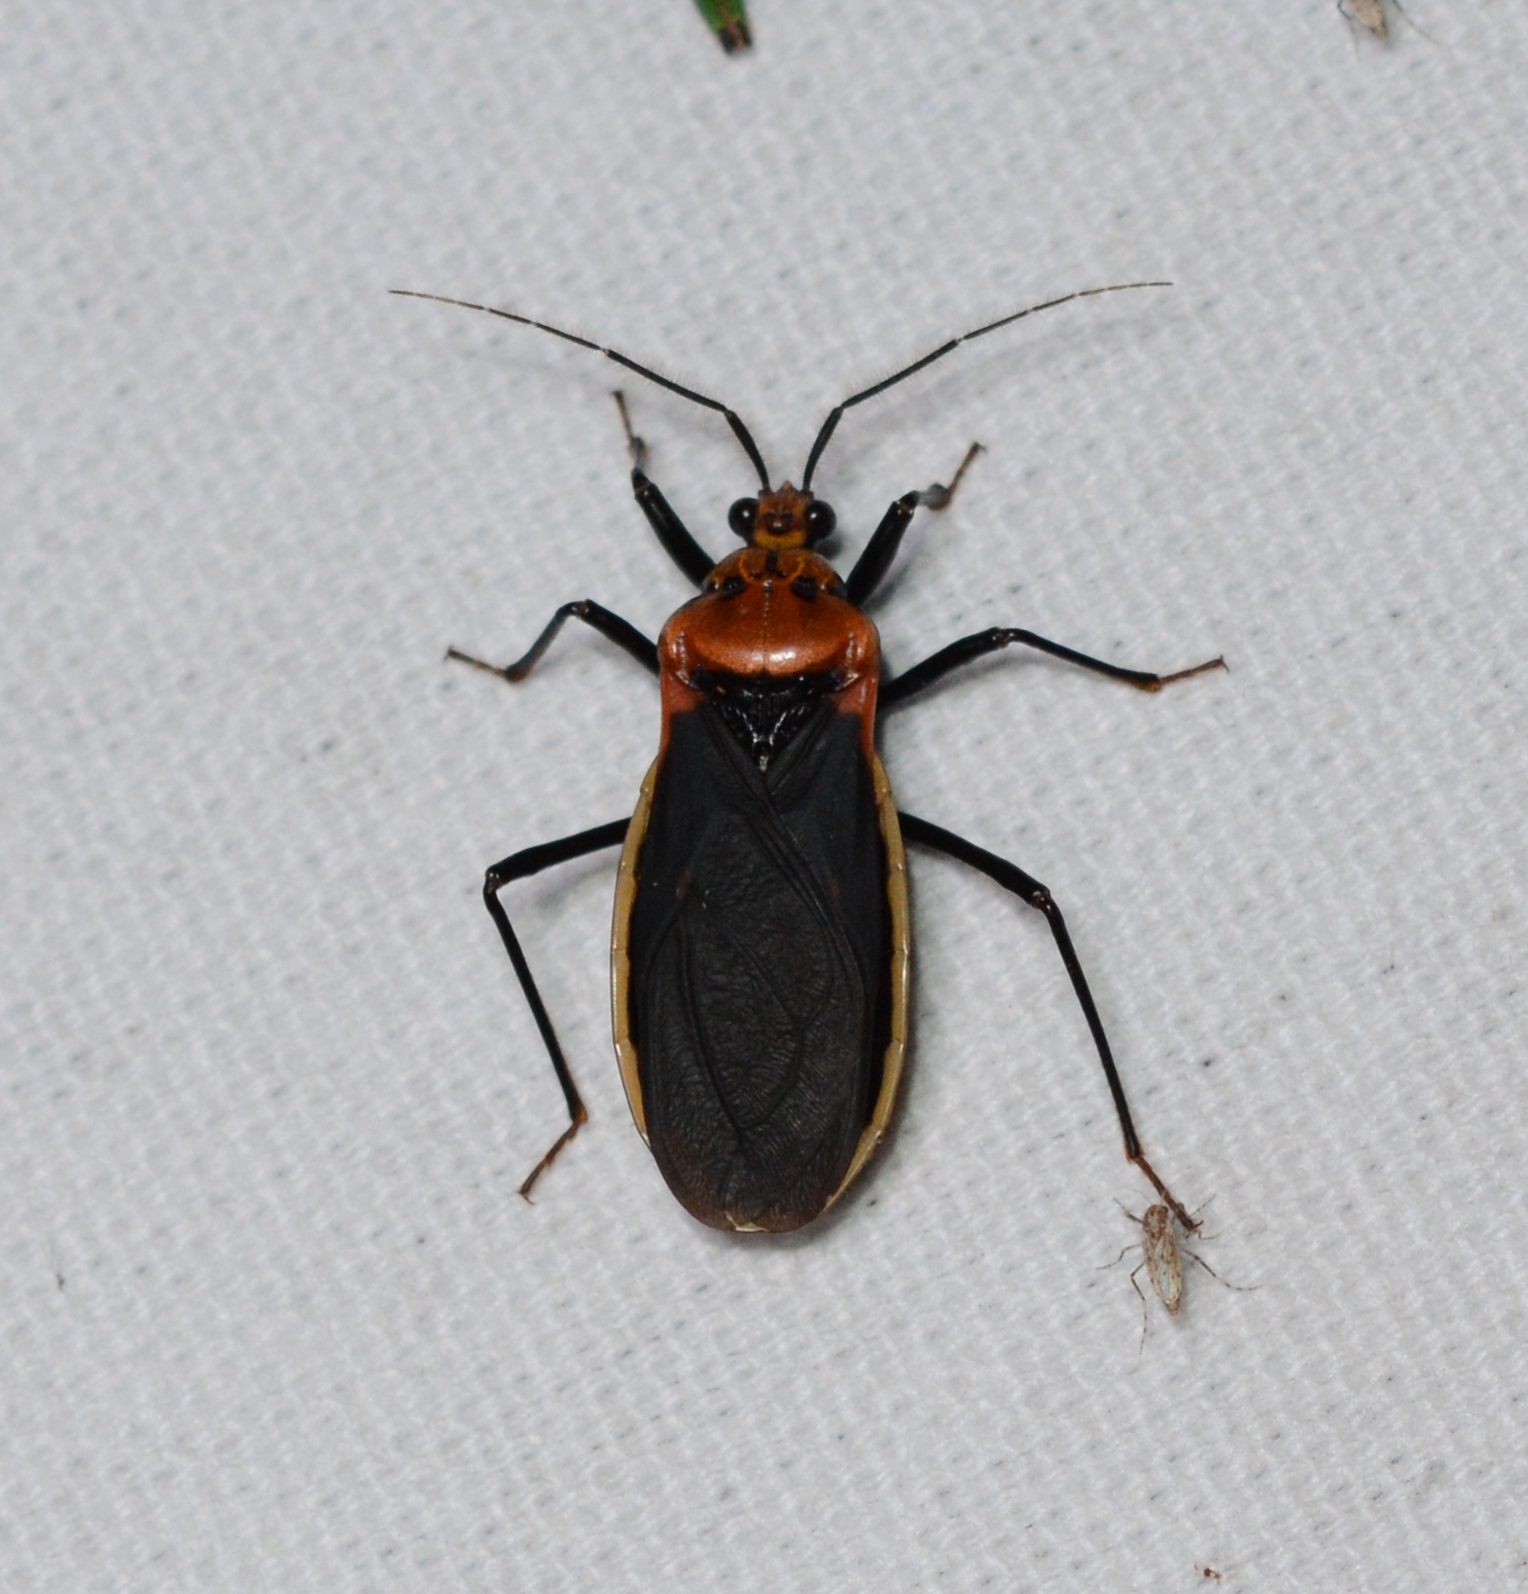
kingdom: Animalia
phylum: Arthropoda
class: Insecta
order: Hemiptera
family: Reduviidae
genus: Rhiginia
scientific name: Rhiginia cinctiventris
